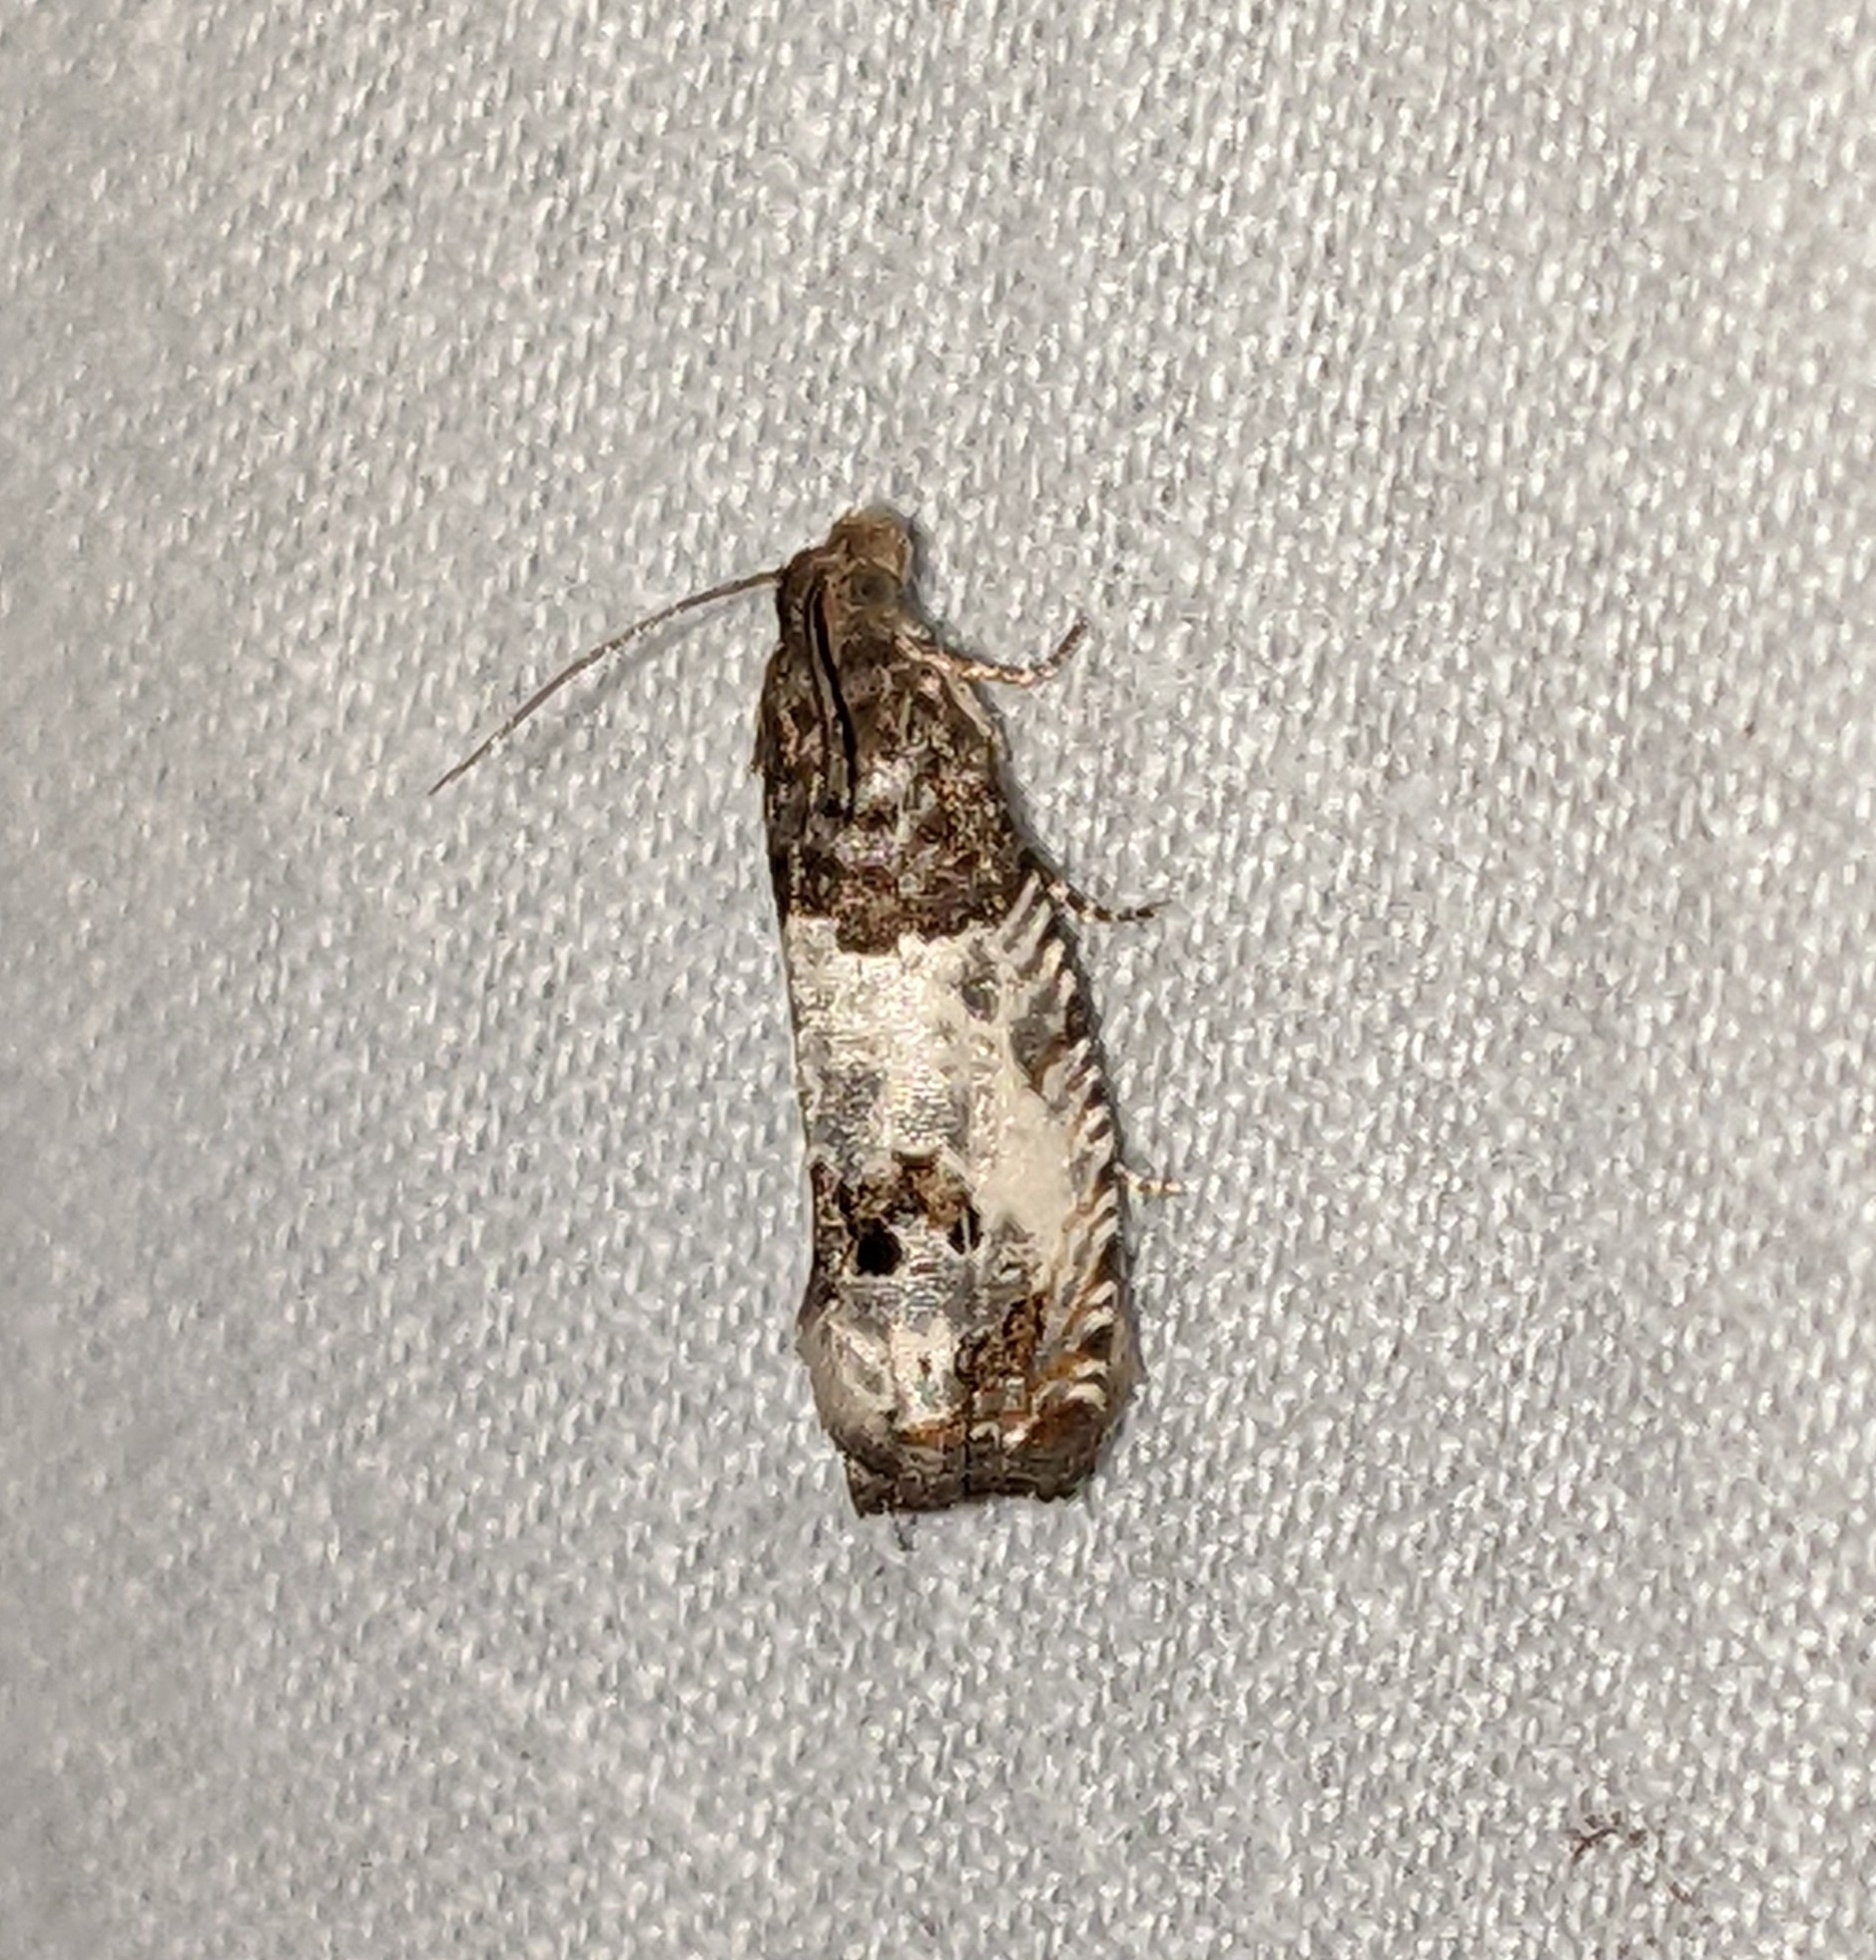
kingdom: Animalia
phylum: Arthropoda
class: Insecta
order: Lepidoptera
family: Tortricidae
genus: Notocelia
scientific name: Notocelia rosaecolana
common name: Common rose bell
